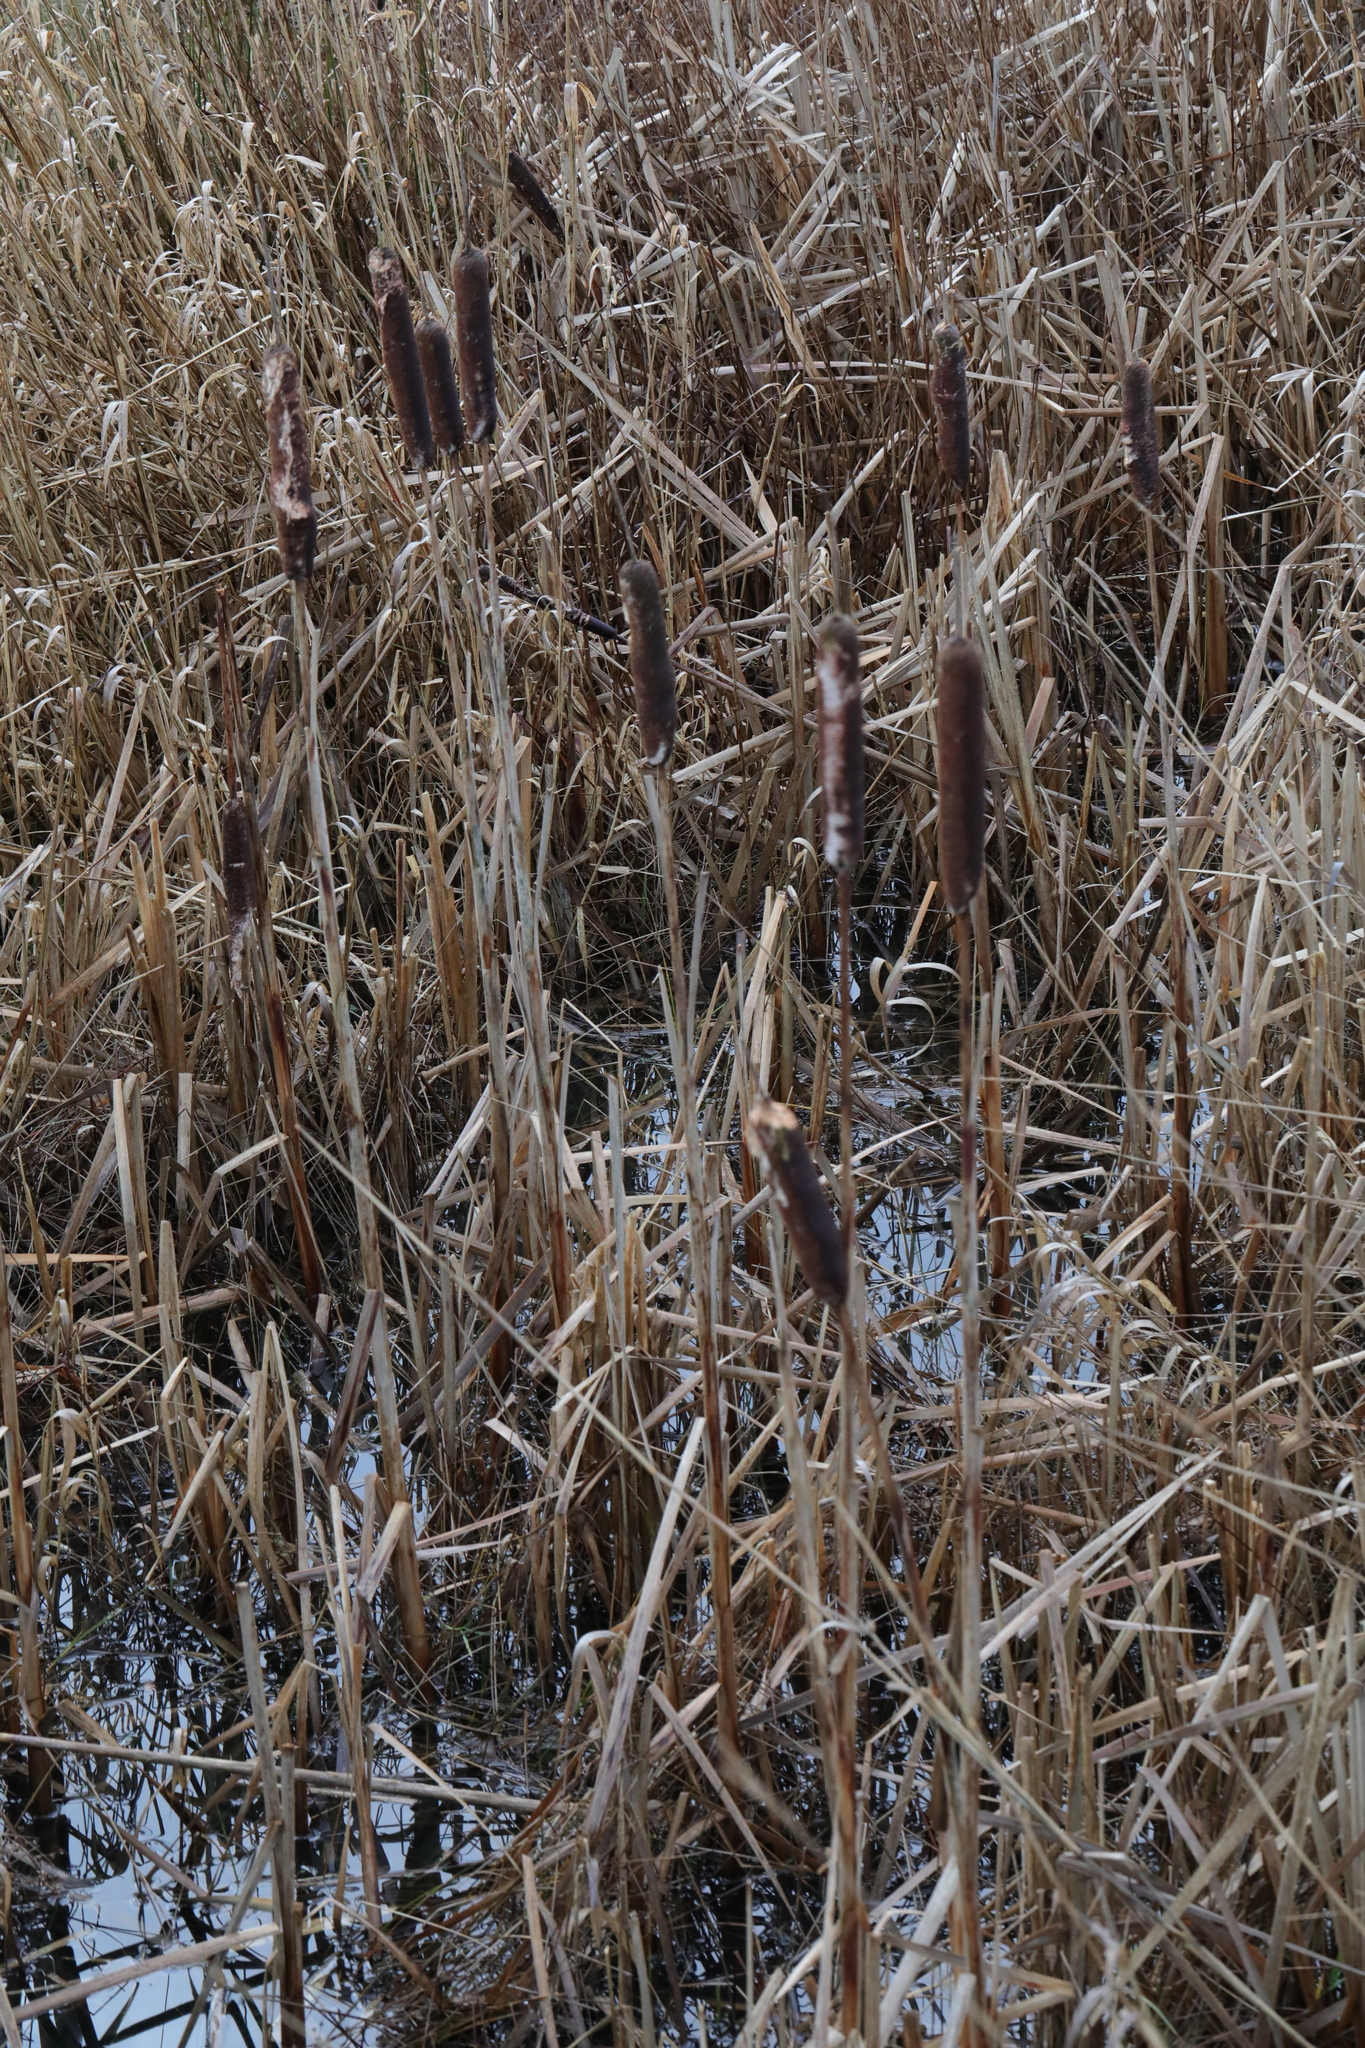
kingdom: Plantae
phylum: Tracheophyta
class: Liliopsida
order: Poales
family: Typhaceae
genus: Typha
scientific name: Typha latifolia
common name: Broadleaf cattail
